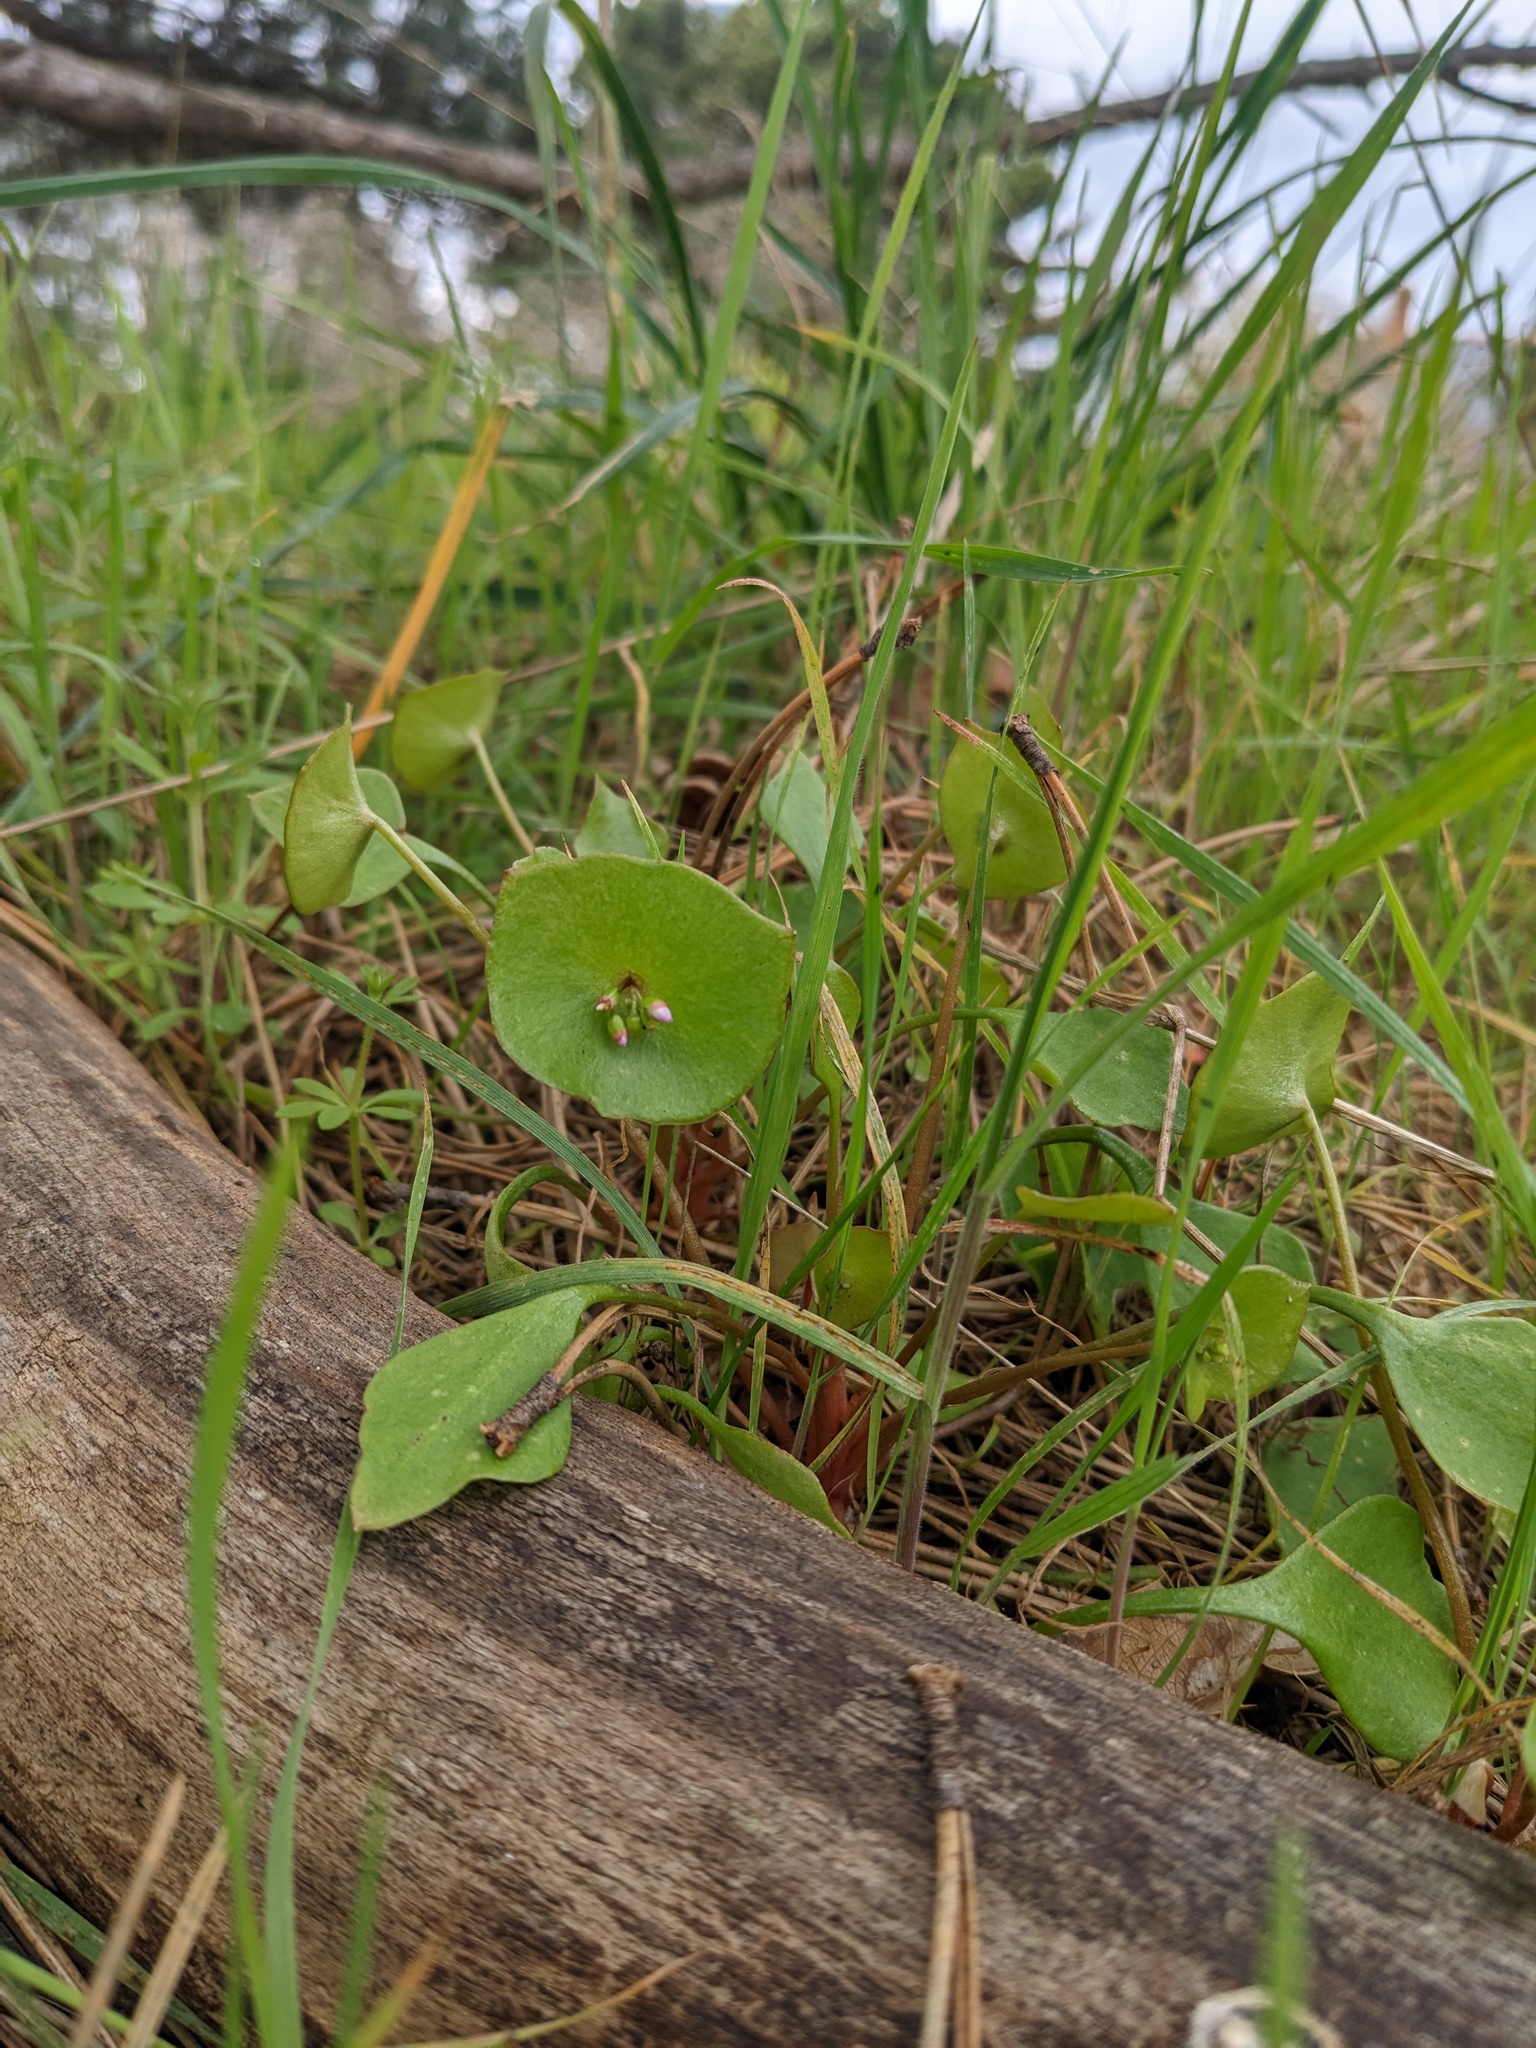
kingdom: Plantae
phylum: Tracheophyta
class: Magnoliopsida
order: Caryophyllales
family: Montiaceae
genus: Claytonia
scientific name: Claytonia perfoliata
